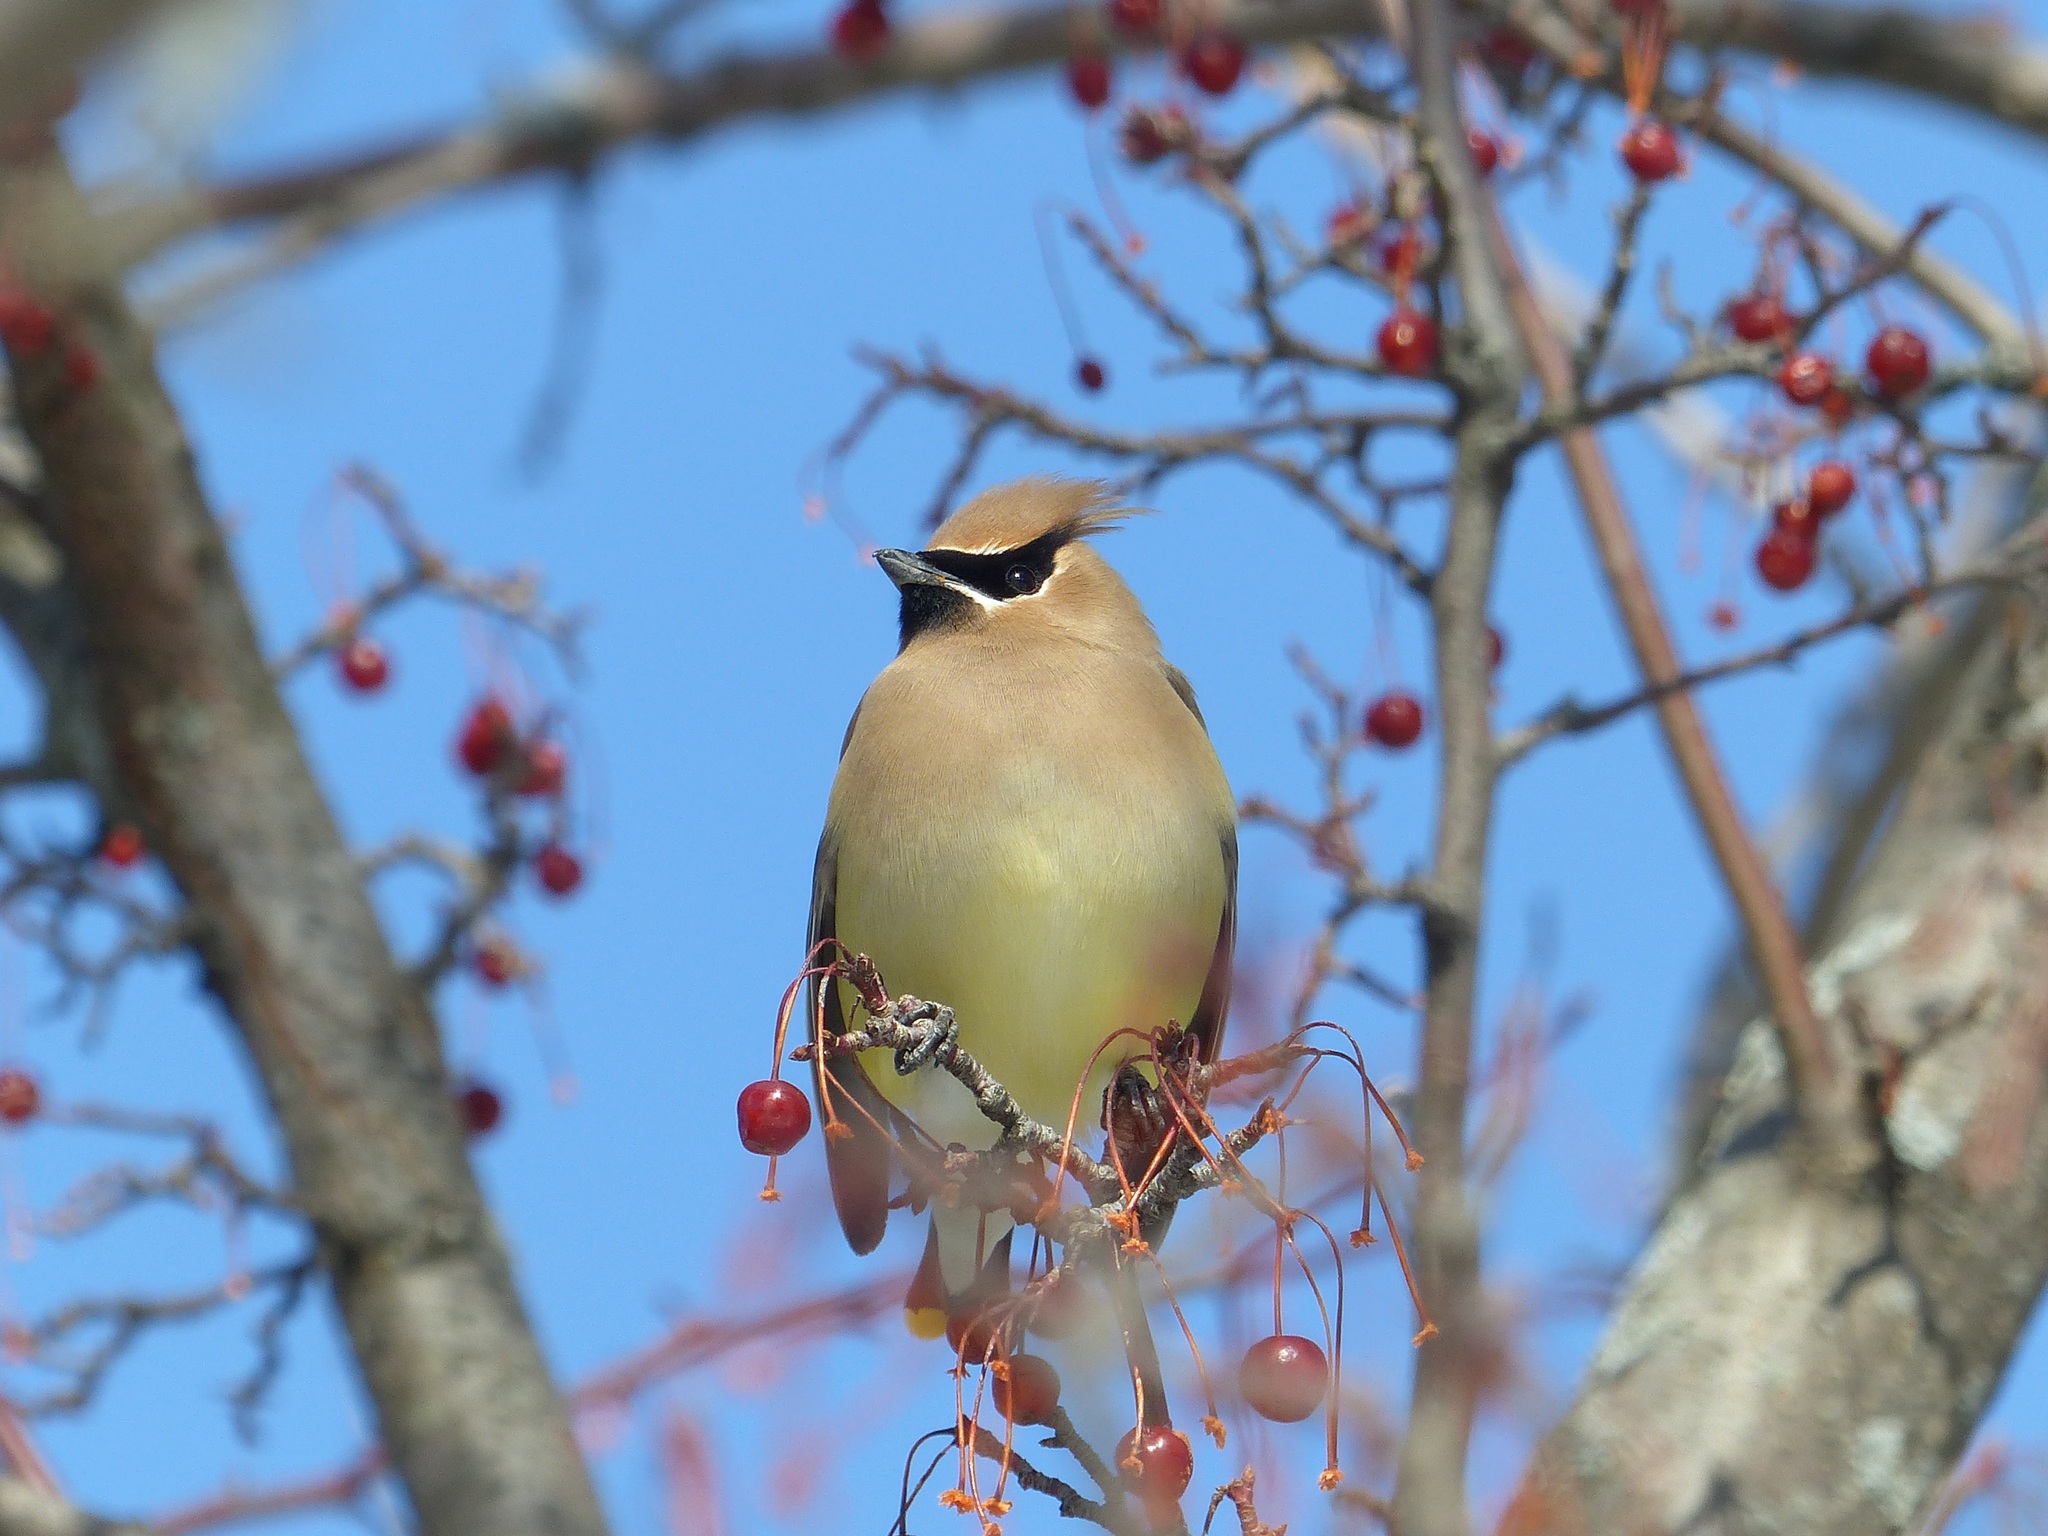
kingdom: Animalia
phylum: Chordata
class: Aves
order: Passeriformes
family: Bombycillidae
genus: Bombycilla
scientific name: Bombycilla cedrorum
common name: Cedar waxwing
